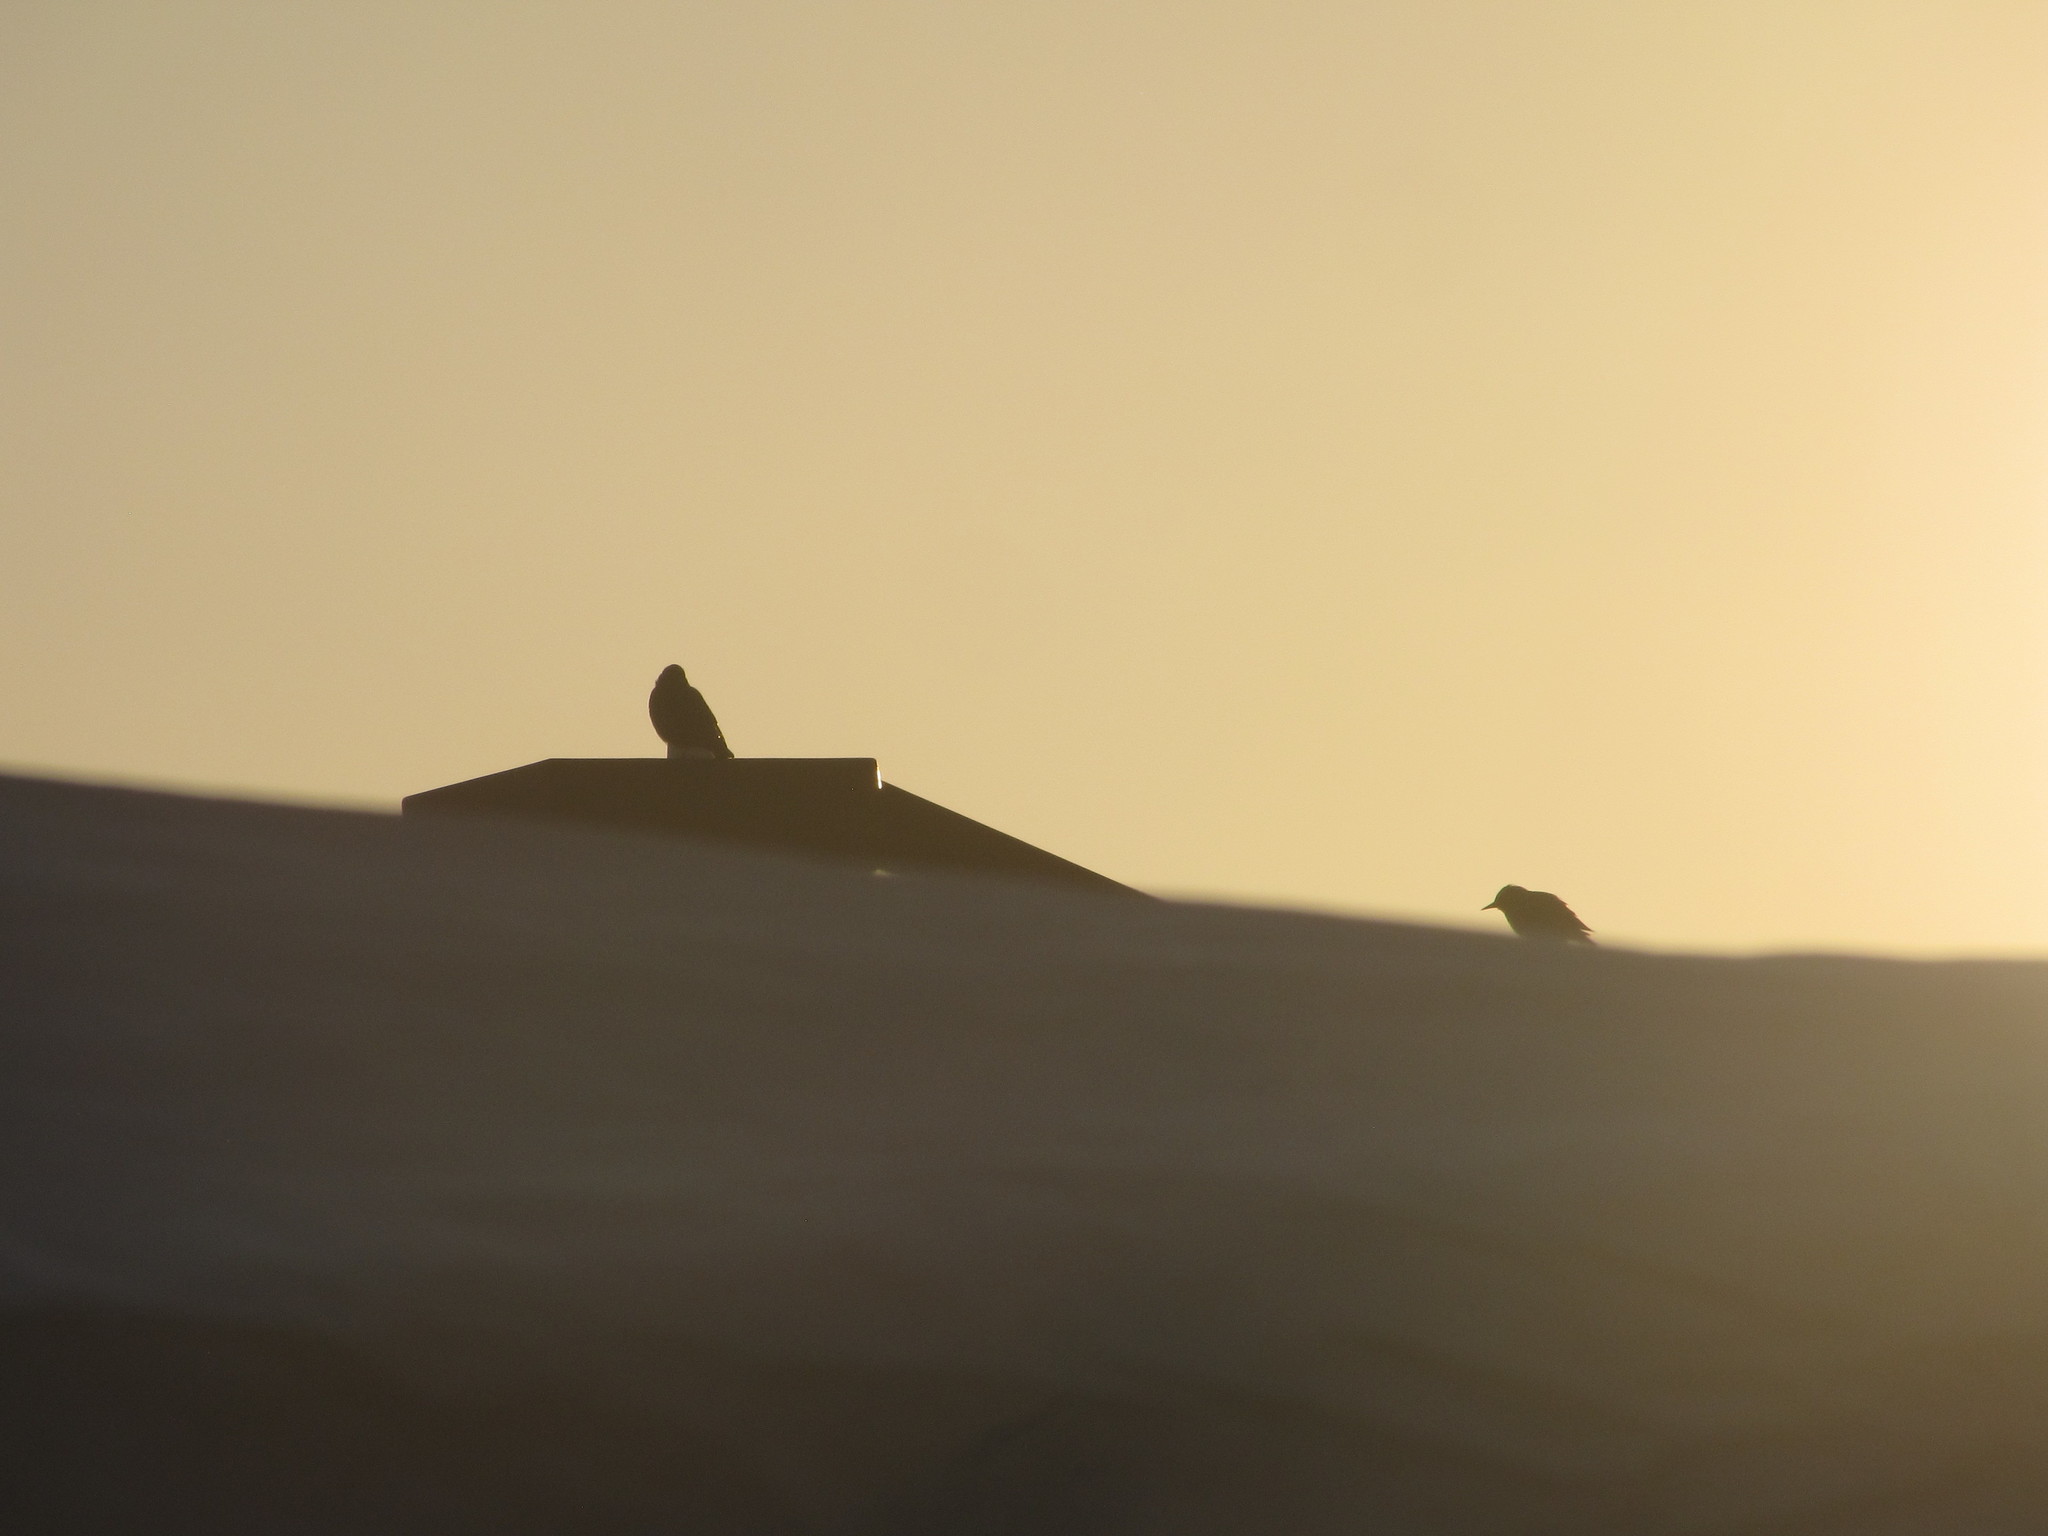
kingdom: Animalia
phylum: Chordata
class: Aves
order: Passeriformes
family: Sturnidae
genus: Sturnus
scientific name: Sturnus vulgaris
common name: Common starling
